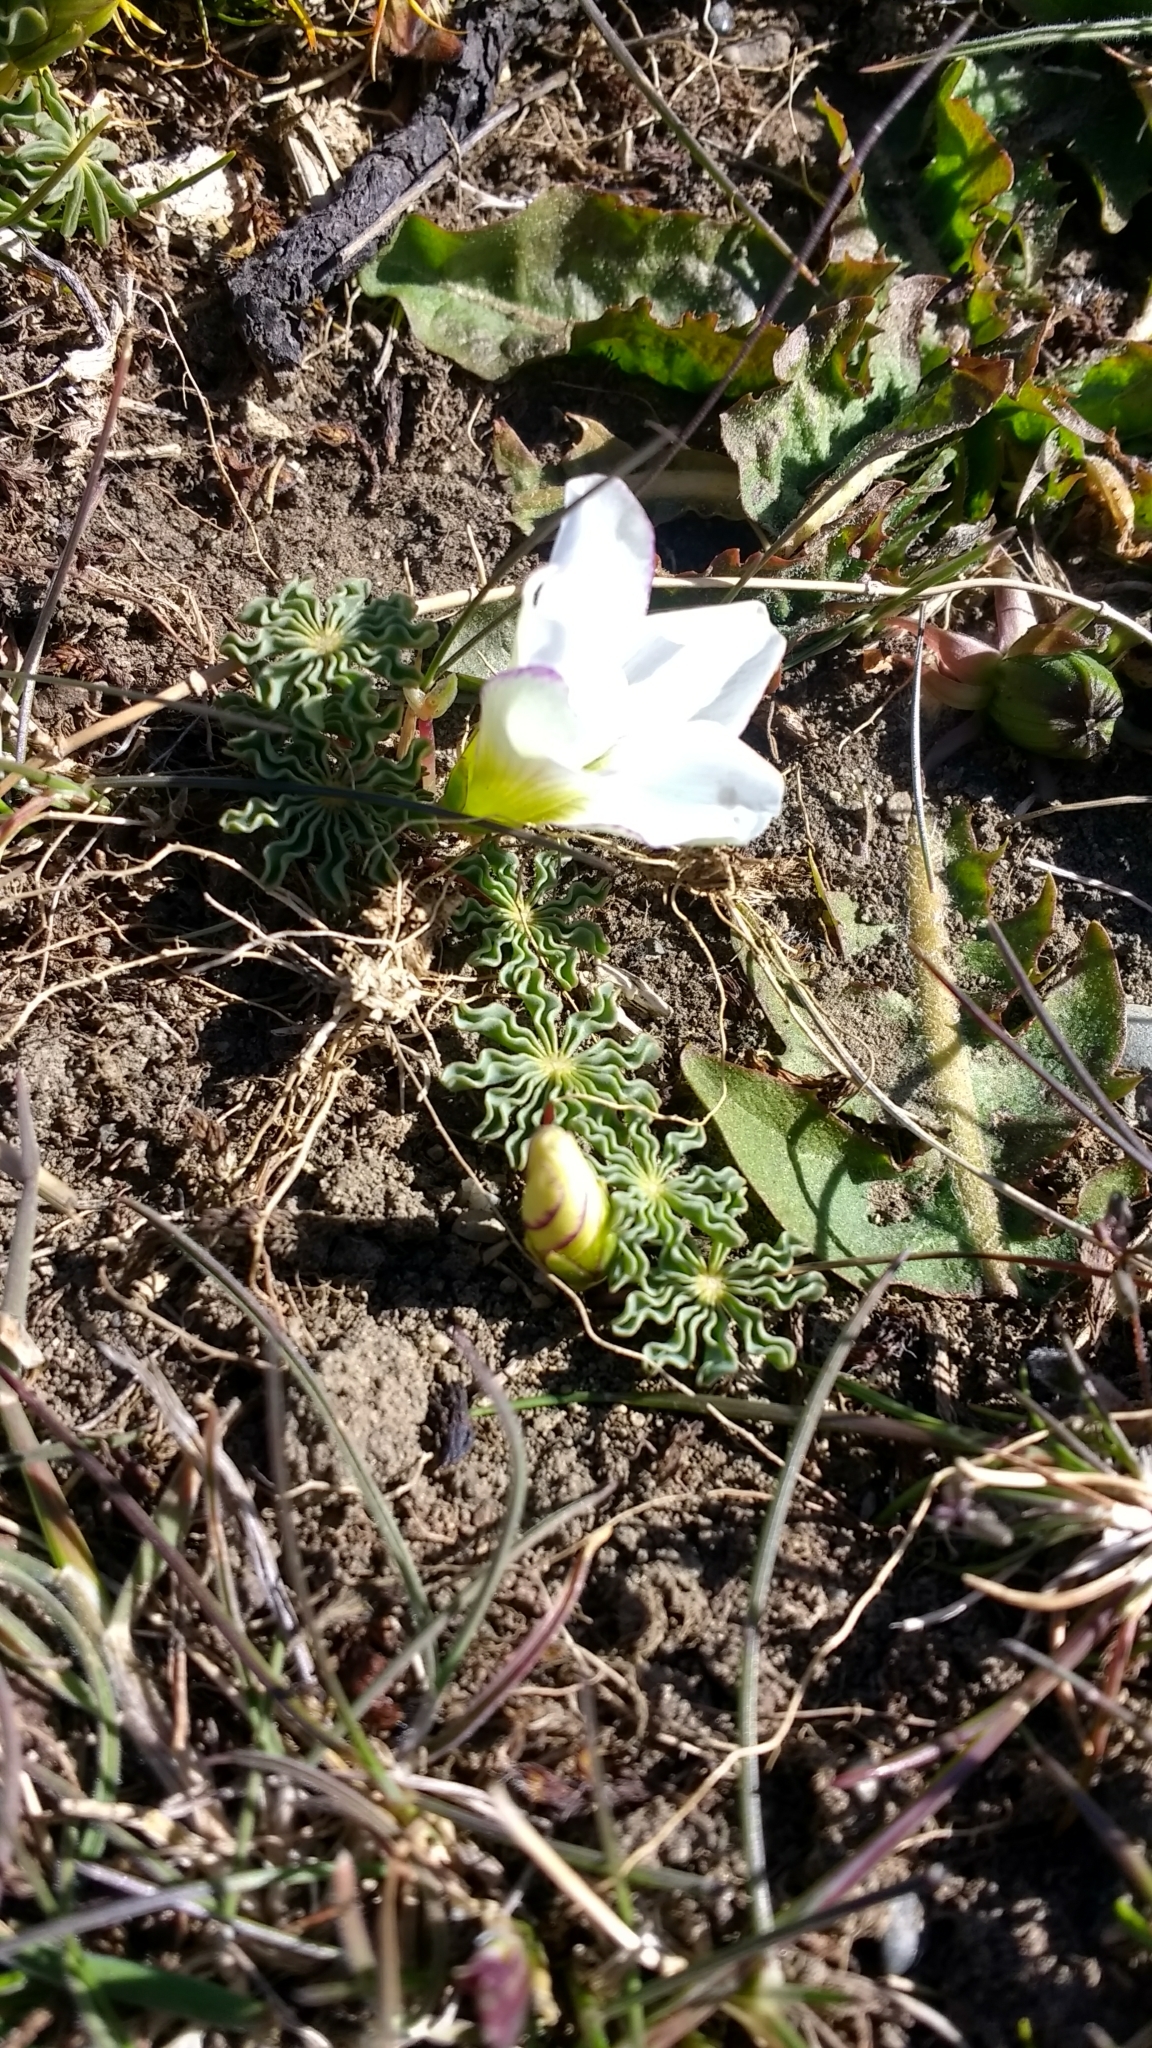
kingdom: Plantae
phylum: Tracheophyta
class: Magnoliopsida
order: Oxalidales
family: Oxalidaceae
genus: Oxalis
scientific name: Oxalis laciniata
